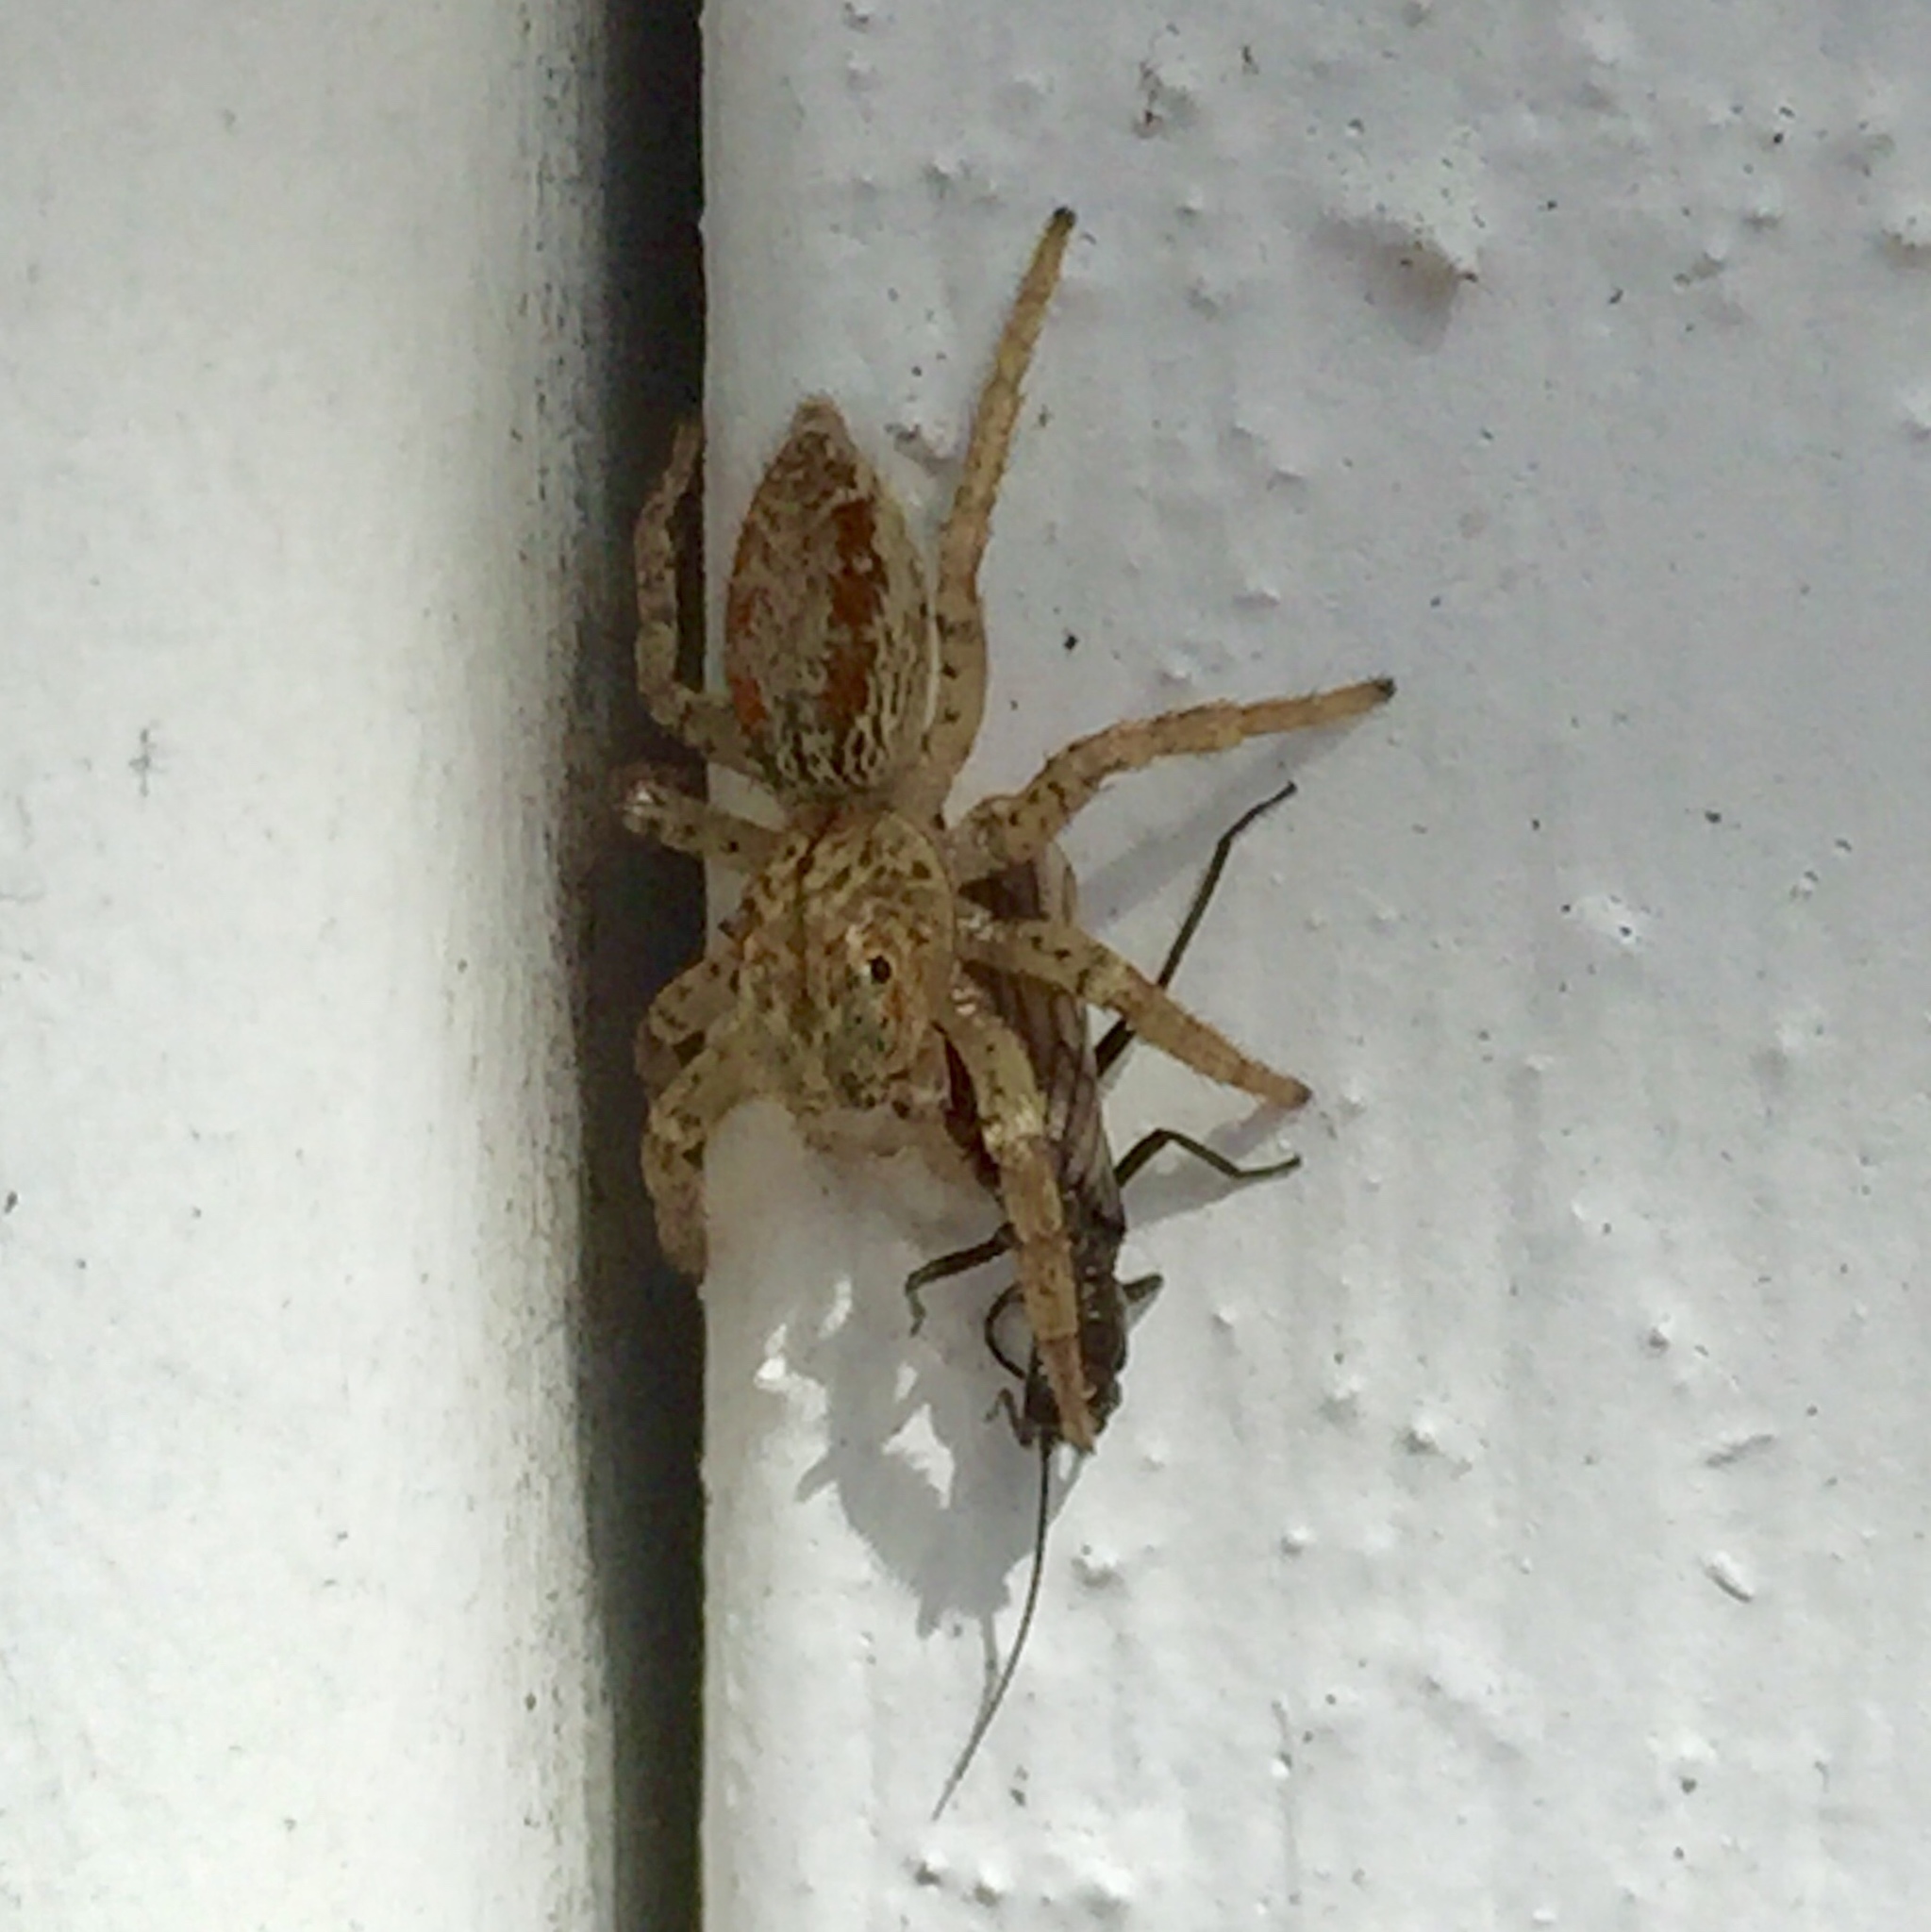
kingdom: Animalia
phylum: Arthropoda
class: Arachnida
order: Araneae
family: Salticidae
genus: Maevia
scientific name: Maevia inclemens
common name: Dimorphic jumper
